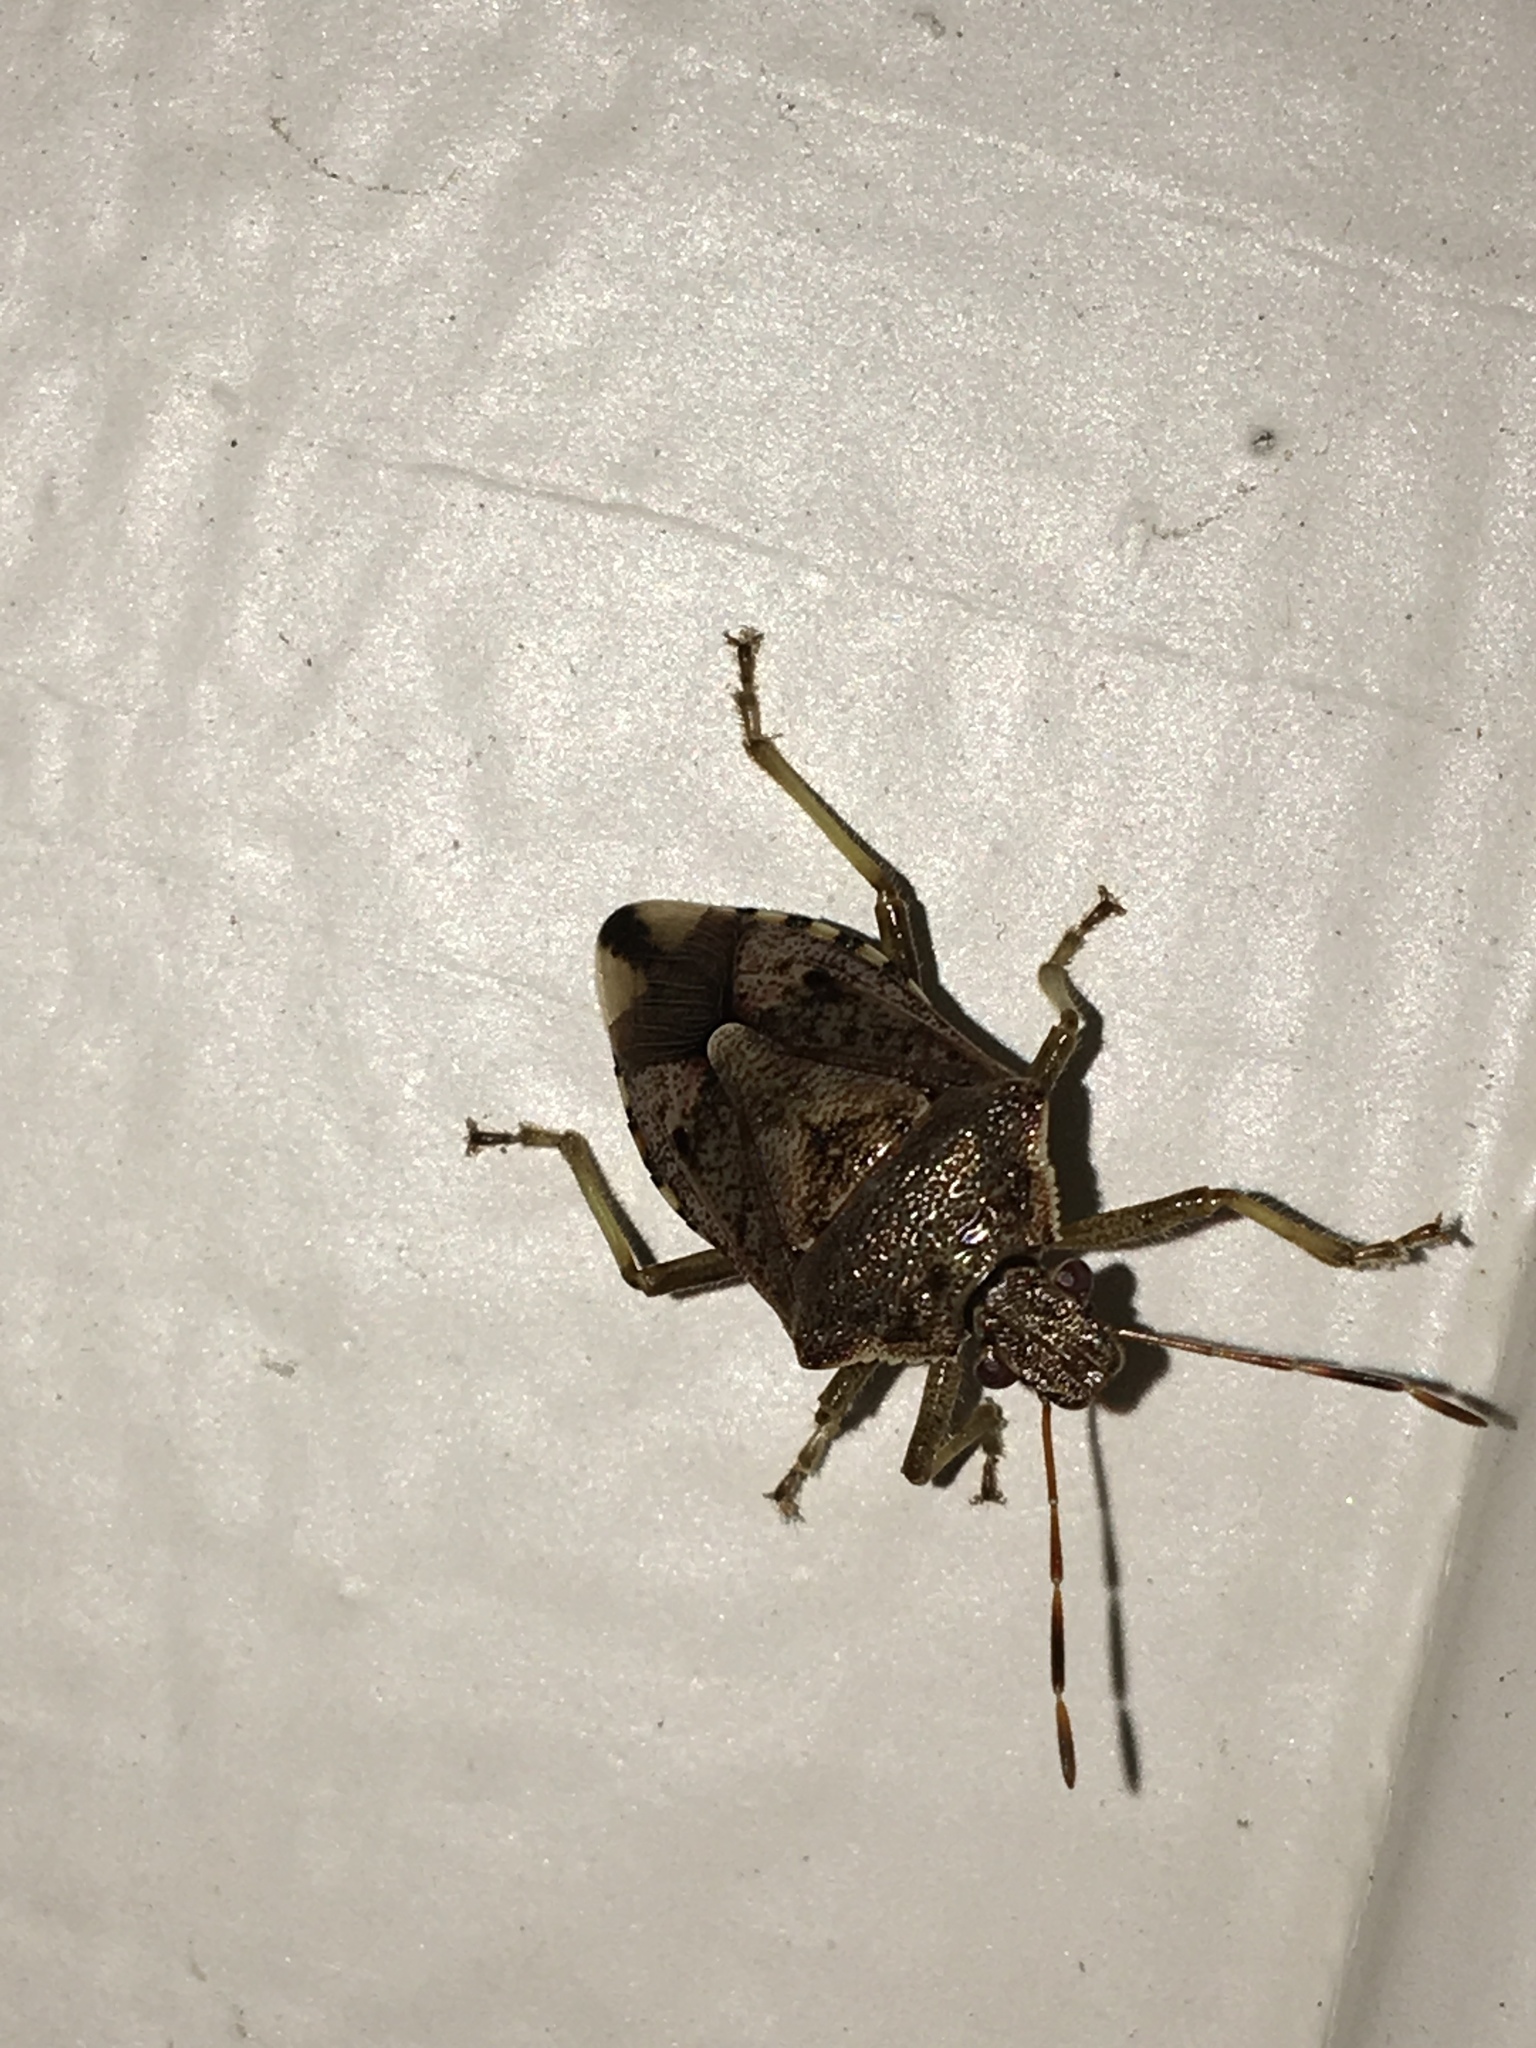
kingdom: Animalia
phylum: Arthropoda
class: Insecta
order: Hemiptera
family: Pentatomidae
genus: Podisus
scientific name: Podisus serieventris
